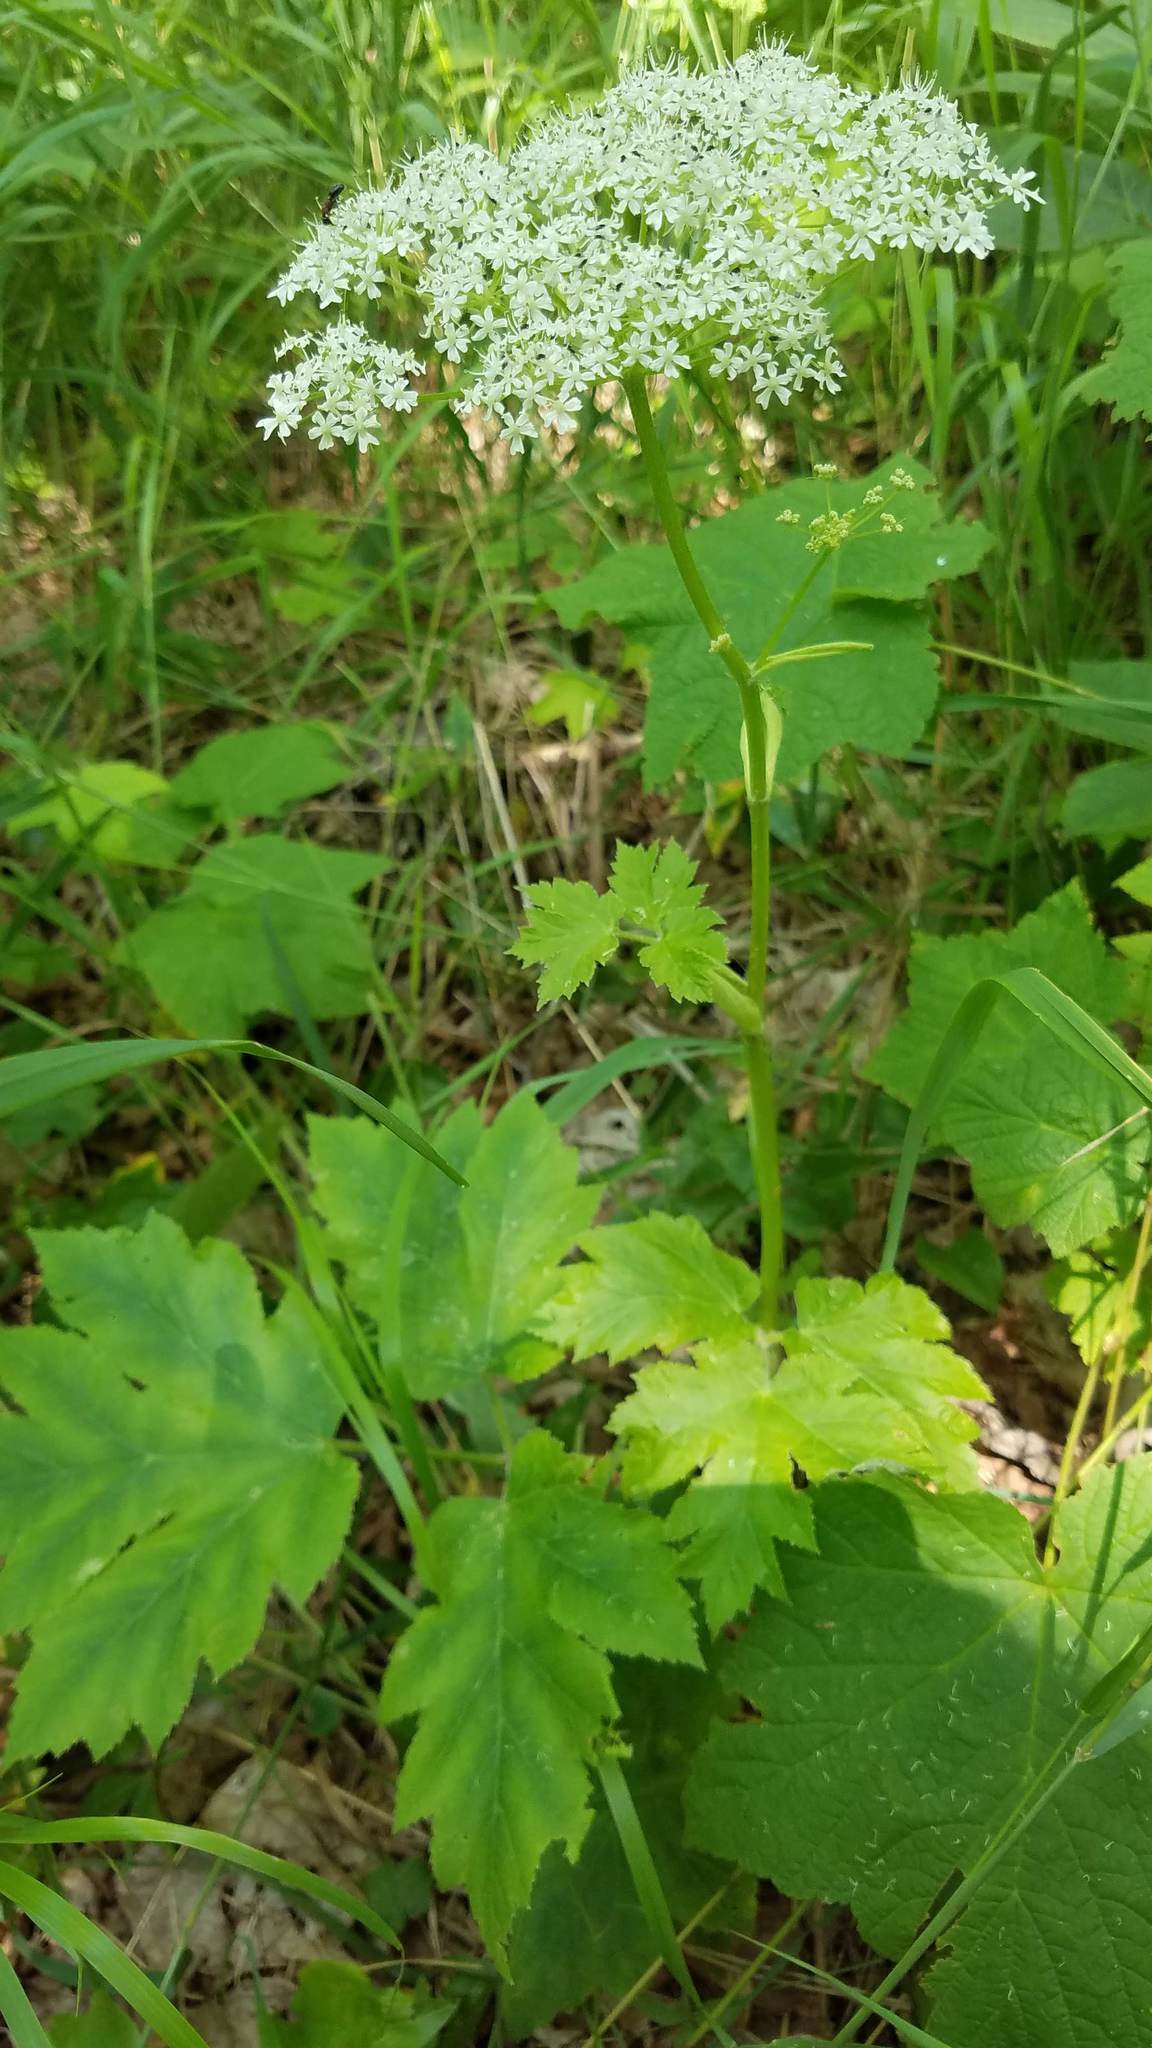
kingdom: Plantae
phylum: Tracheophyta
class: Magnoliopsida
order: Apiales
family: Apiaceae
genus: Heracleum
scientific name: Heracleum maximum
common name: American cow parsnip
